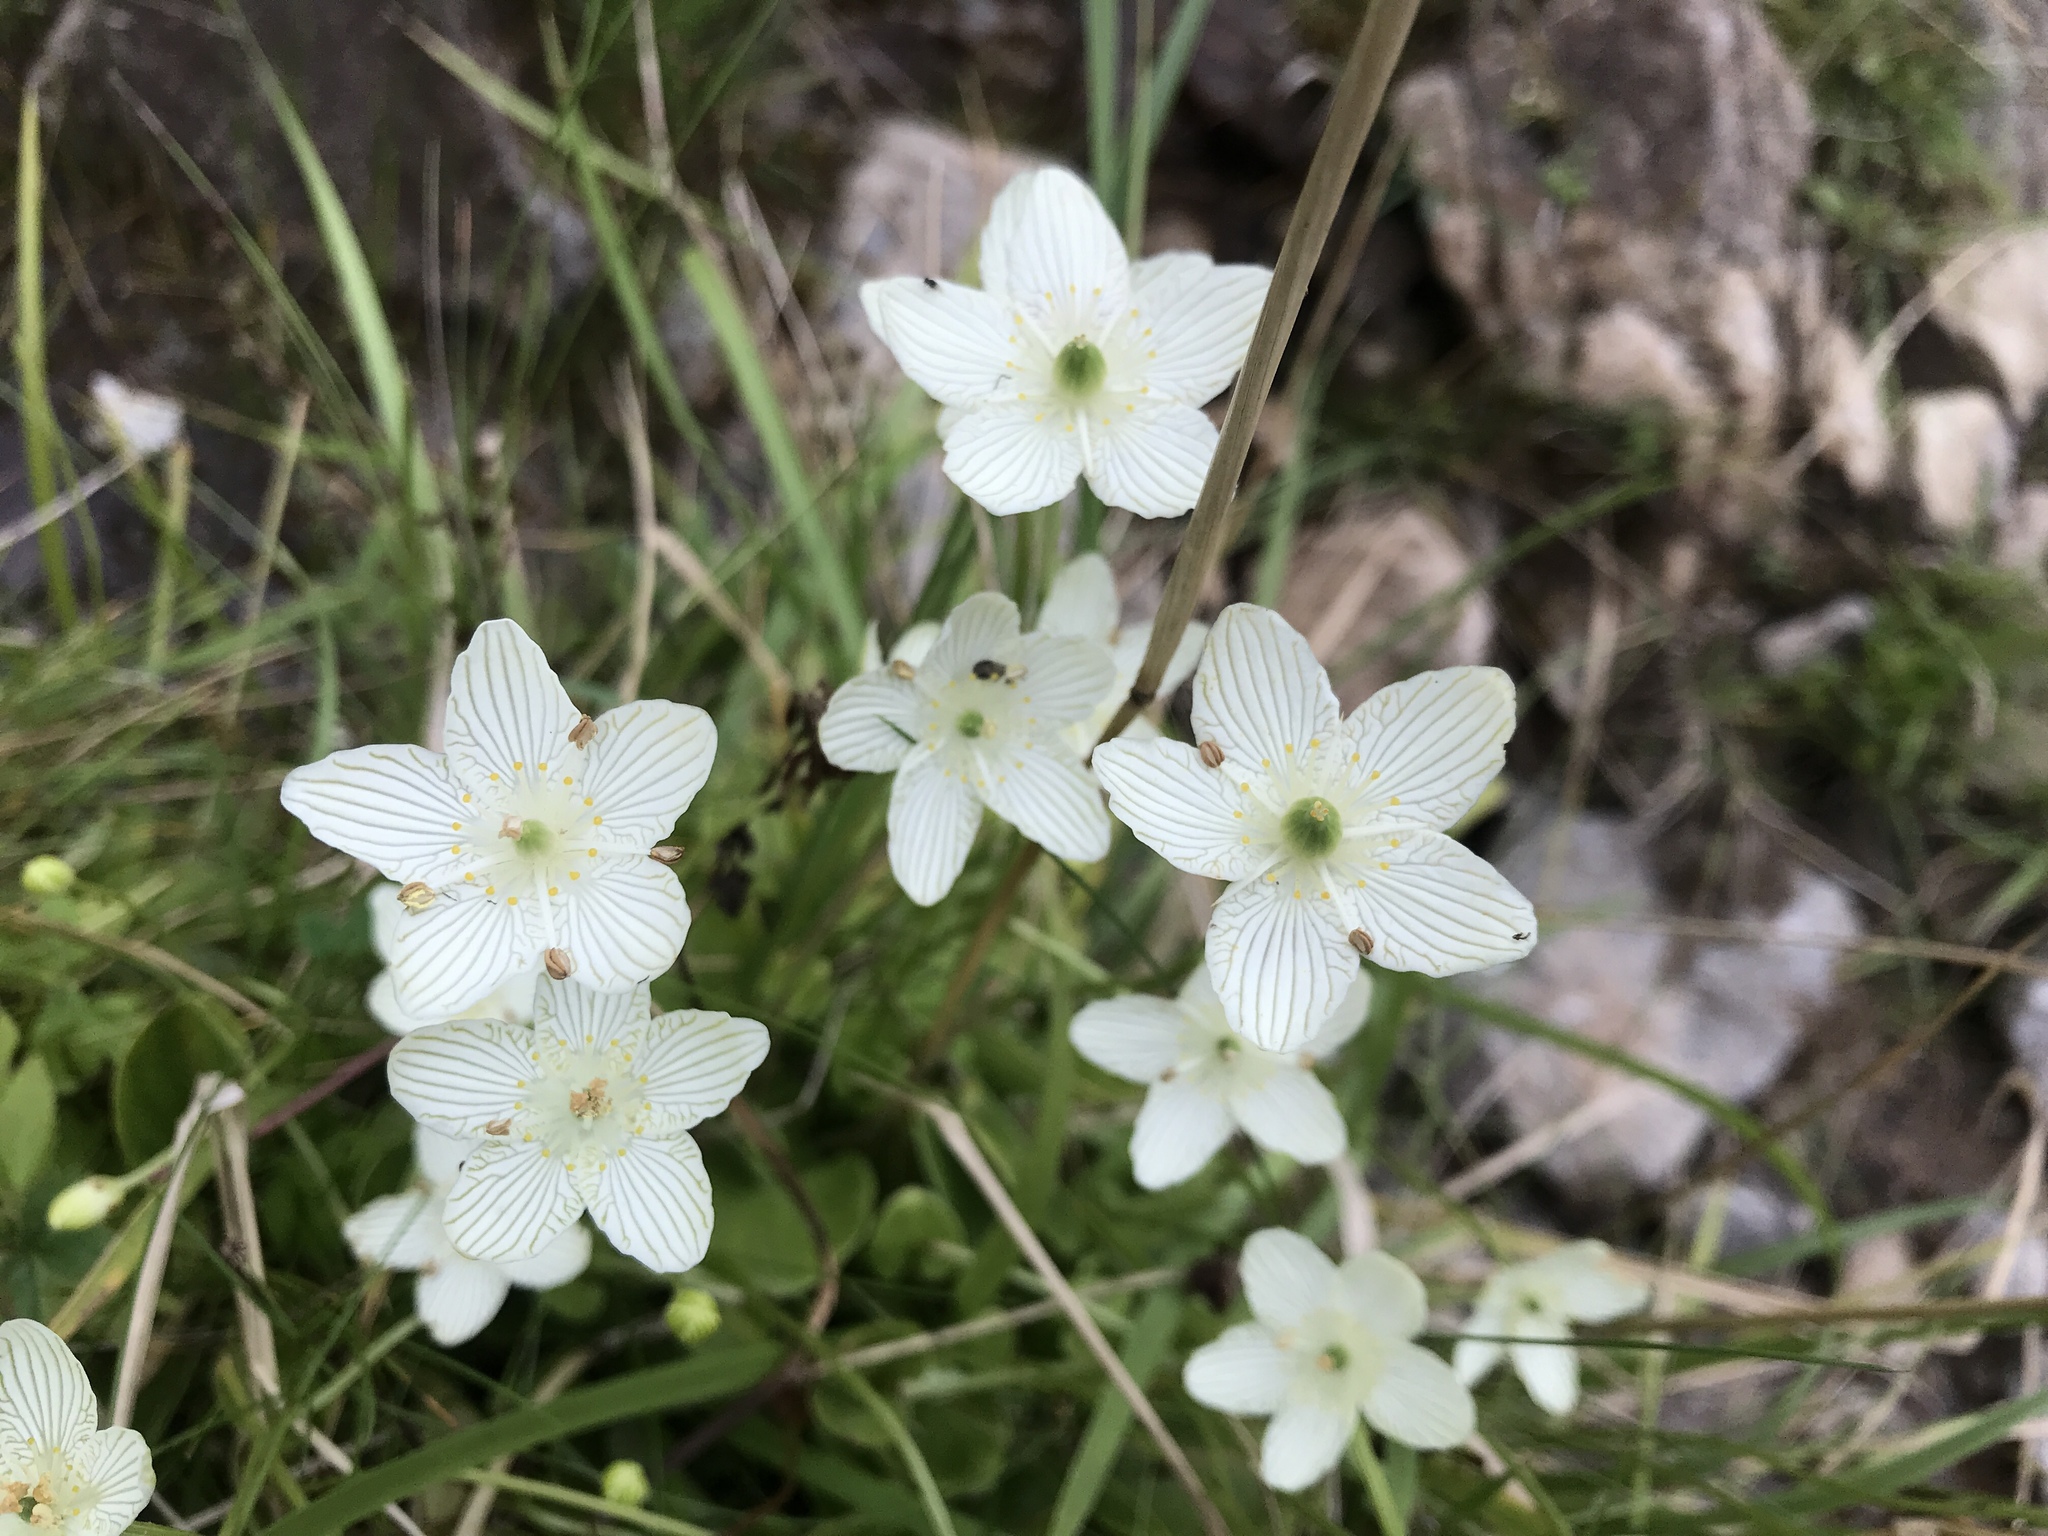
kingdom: Plantae
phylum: Tracheophyta
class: Magnoliopsida
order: Celastrales
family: Parnassiaceae
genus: Parnassia
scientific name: Parnassia glauca
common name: American grass-of-parnassus
